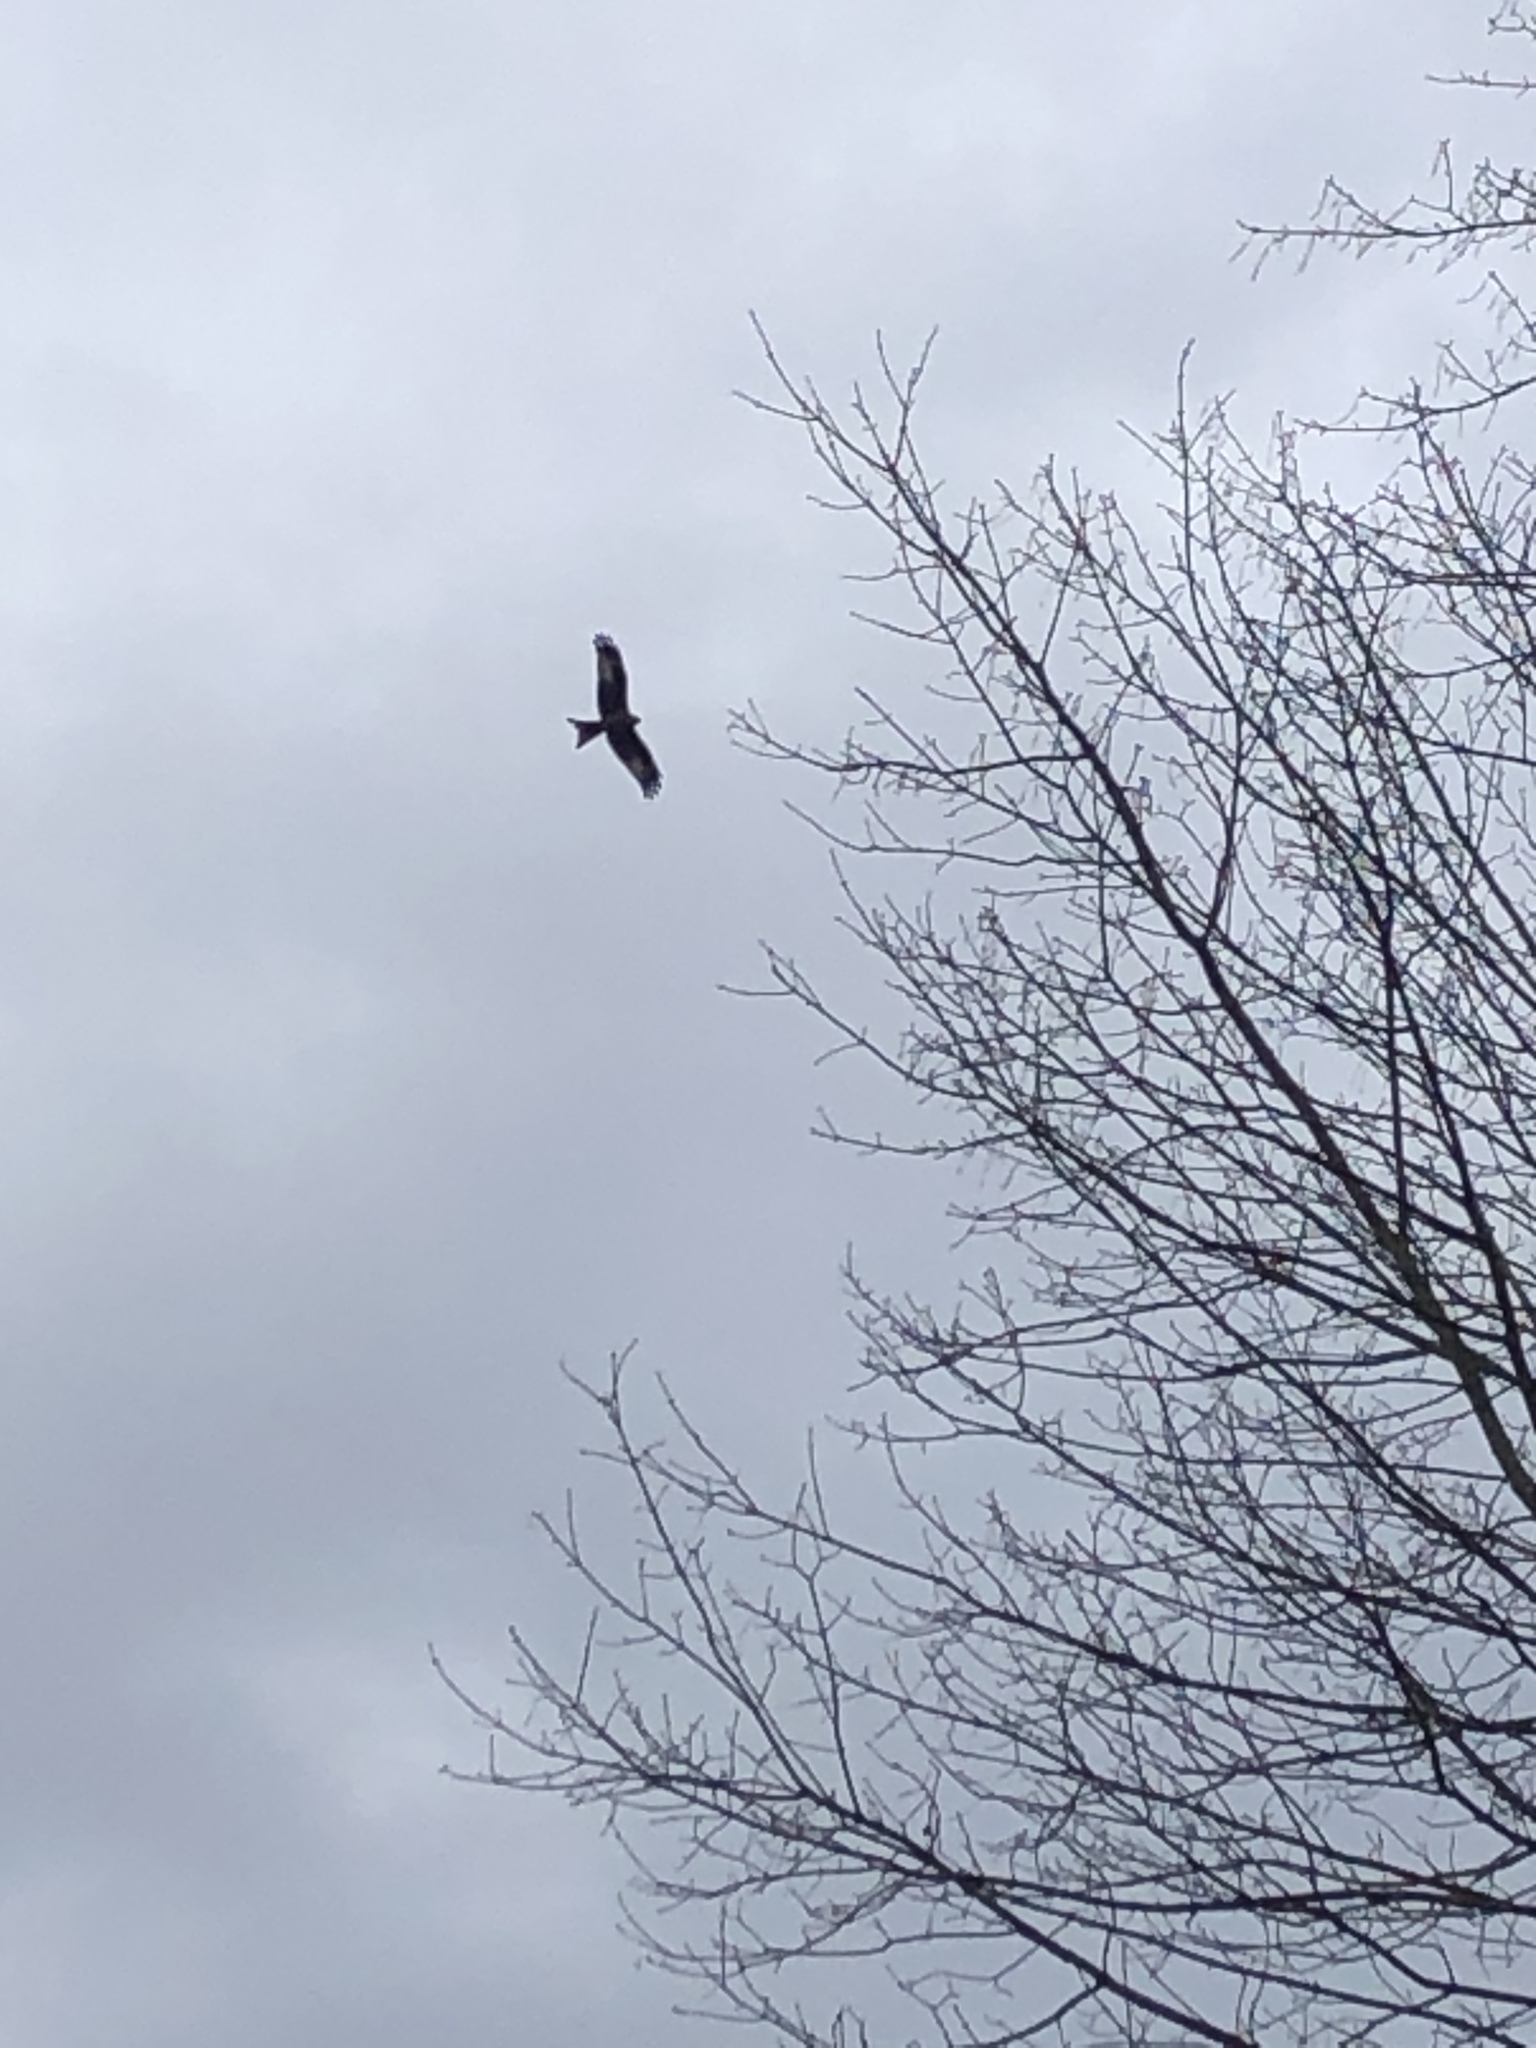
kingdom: Animalia
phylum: Chordata
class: Aves
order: Accipitriformes
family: Accipitridae
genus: Milvus
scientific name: Milvus milvus
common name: Red kite
